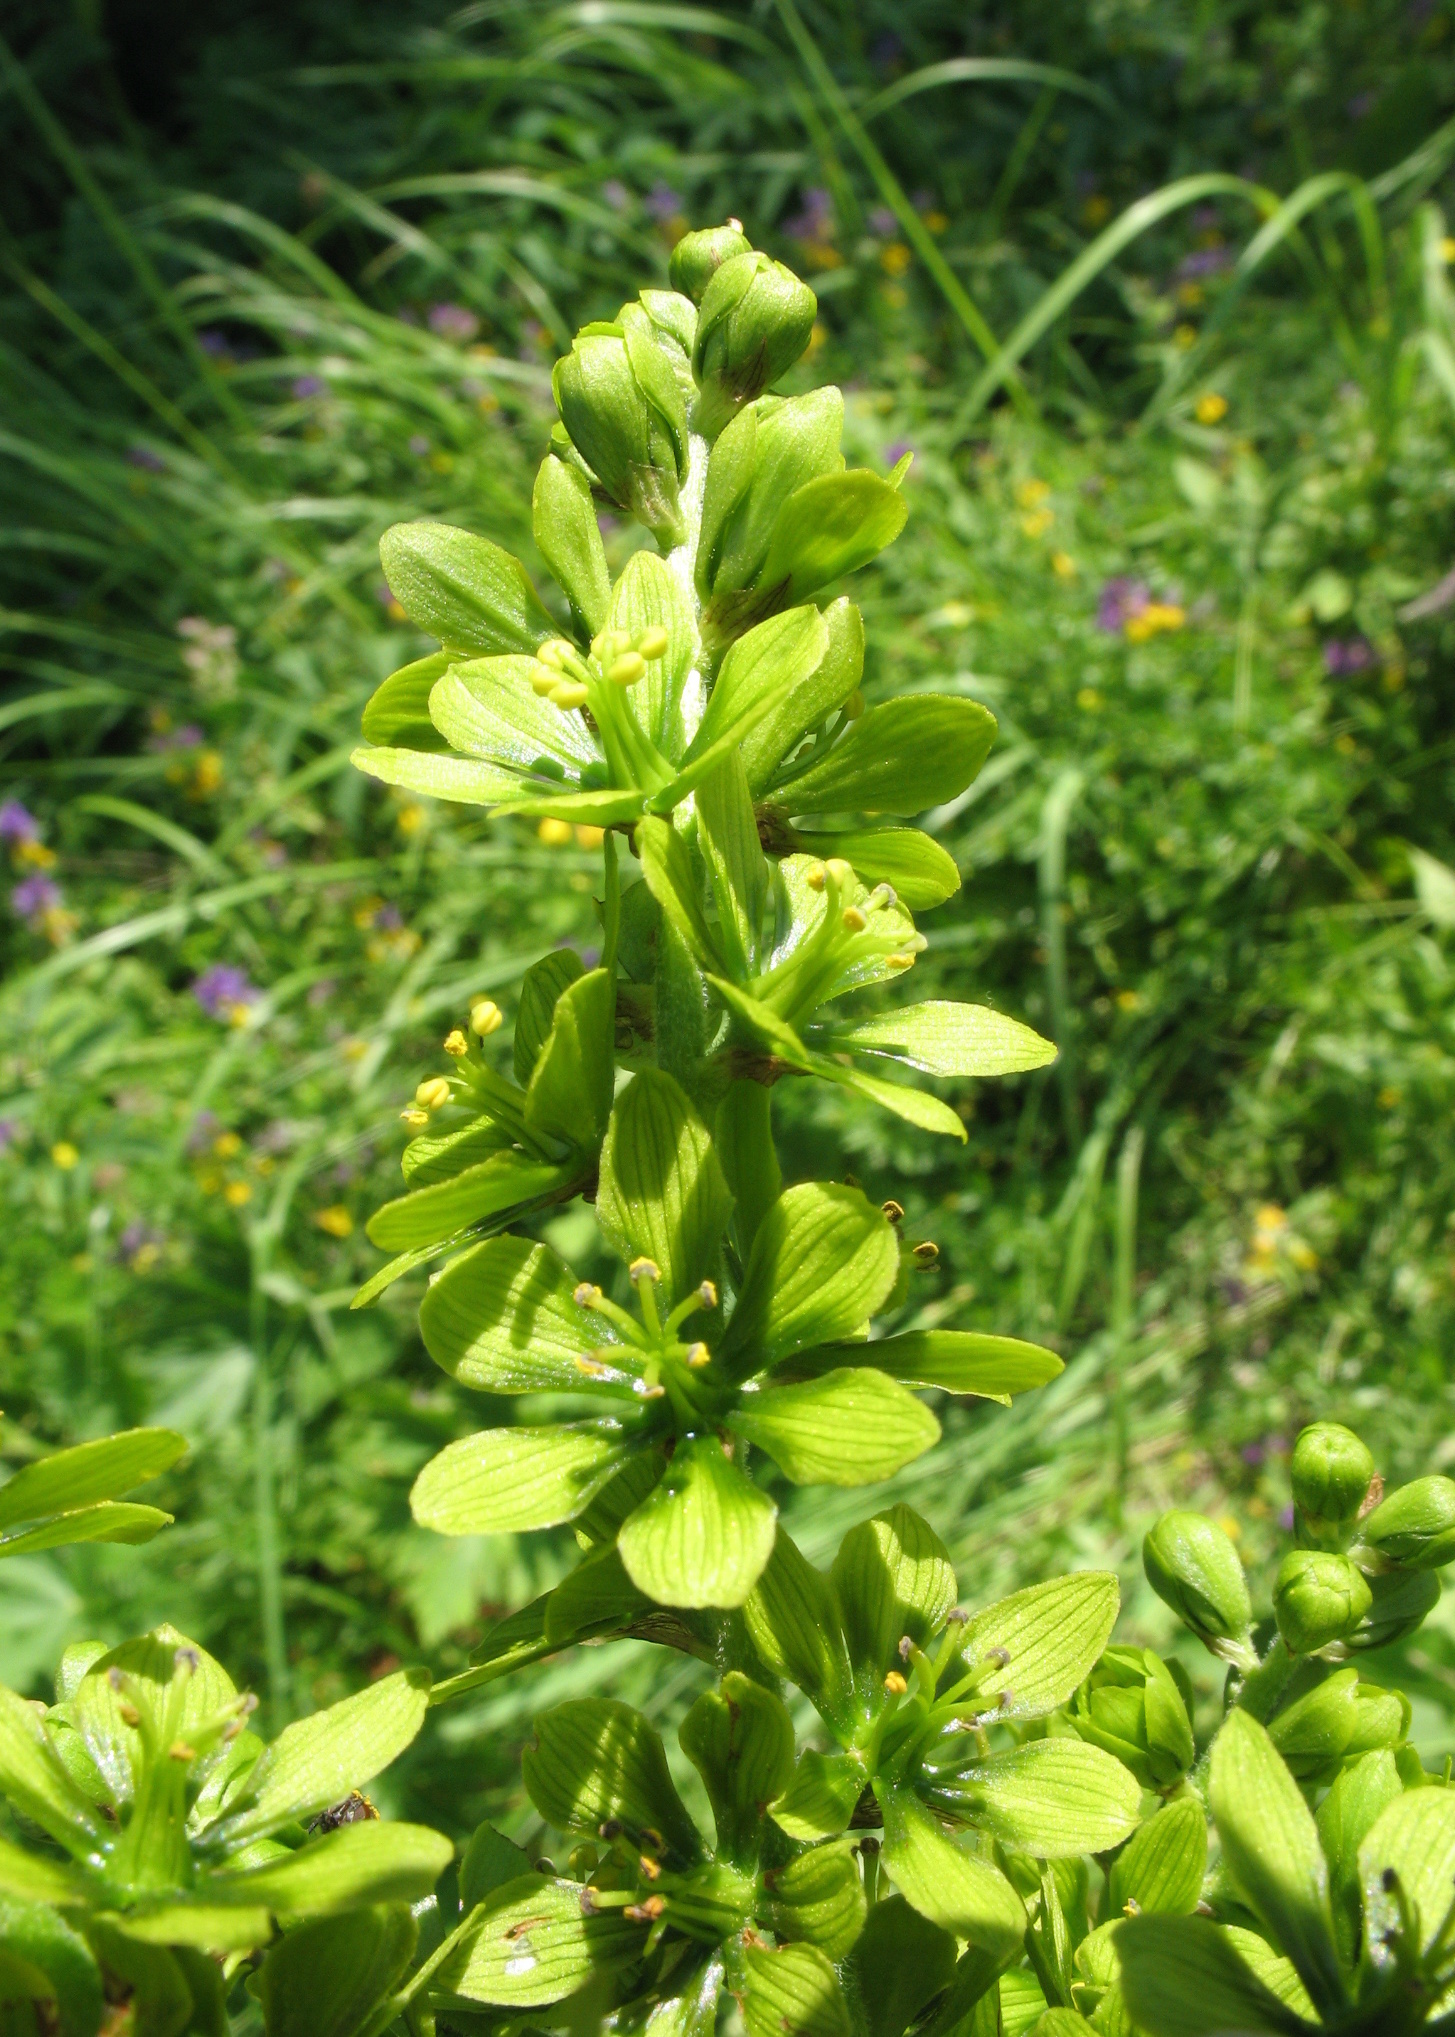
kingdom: Plantae
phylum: Tracheophyta
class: Liliopsida
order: Liliales
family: Melanthiaceae
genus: Veratrum
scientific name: Veratrum lobelianum
